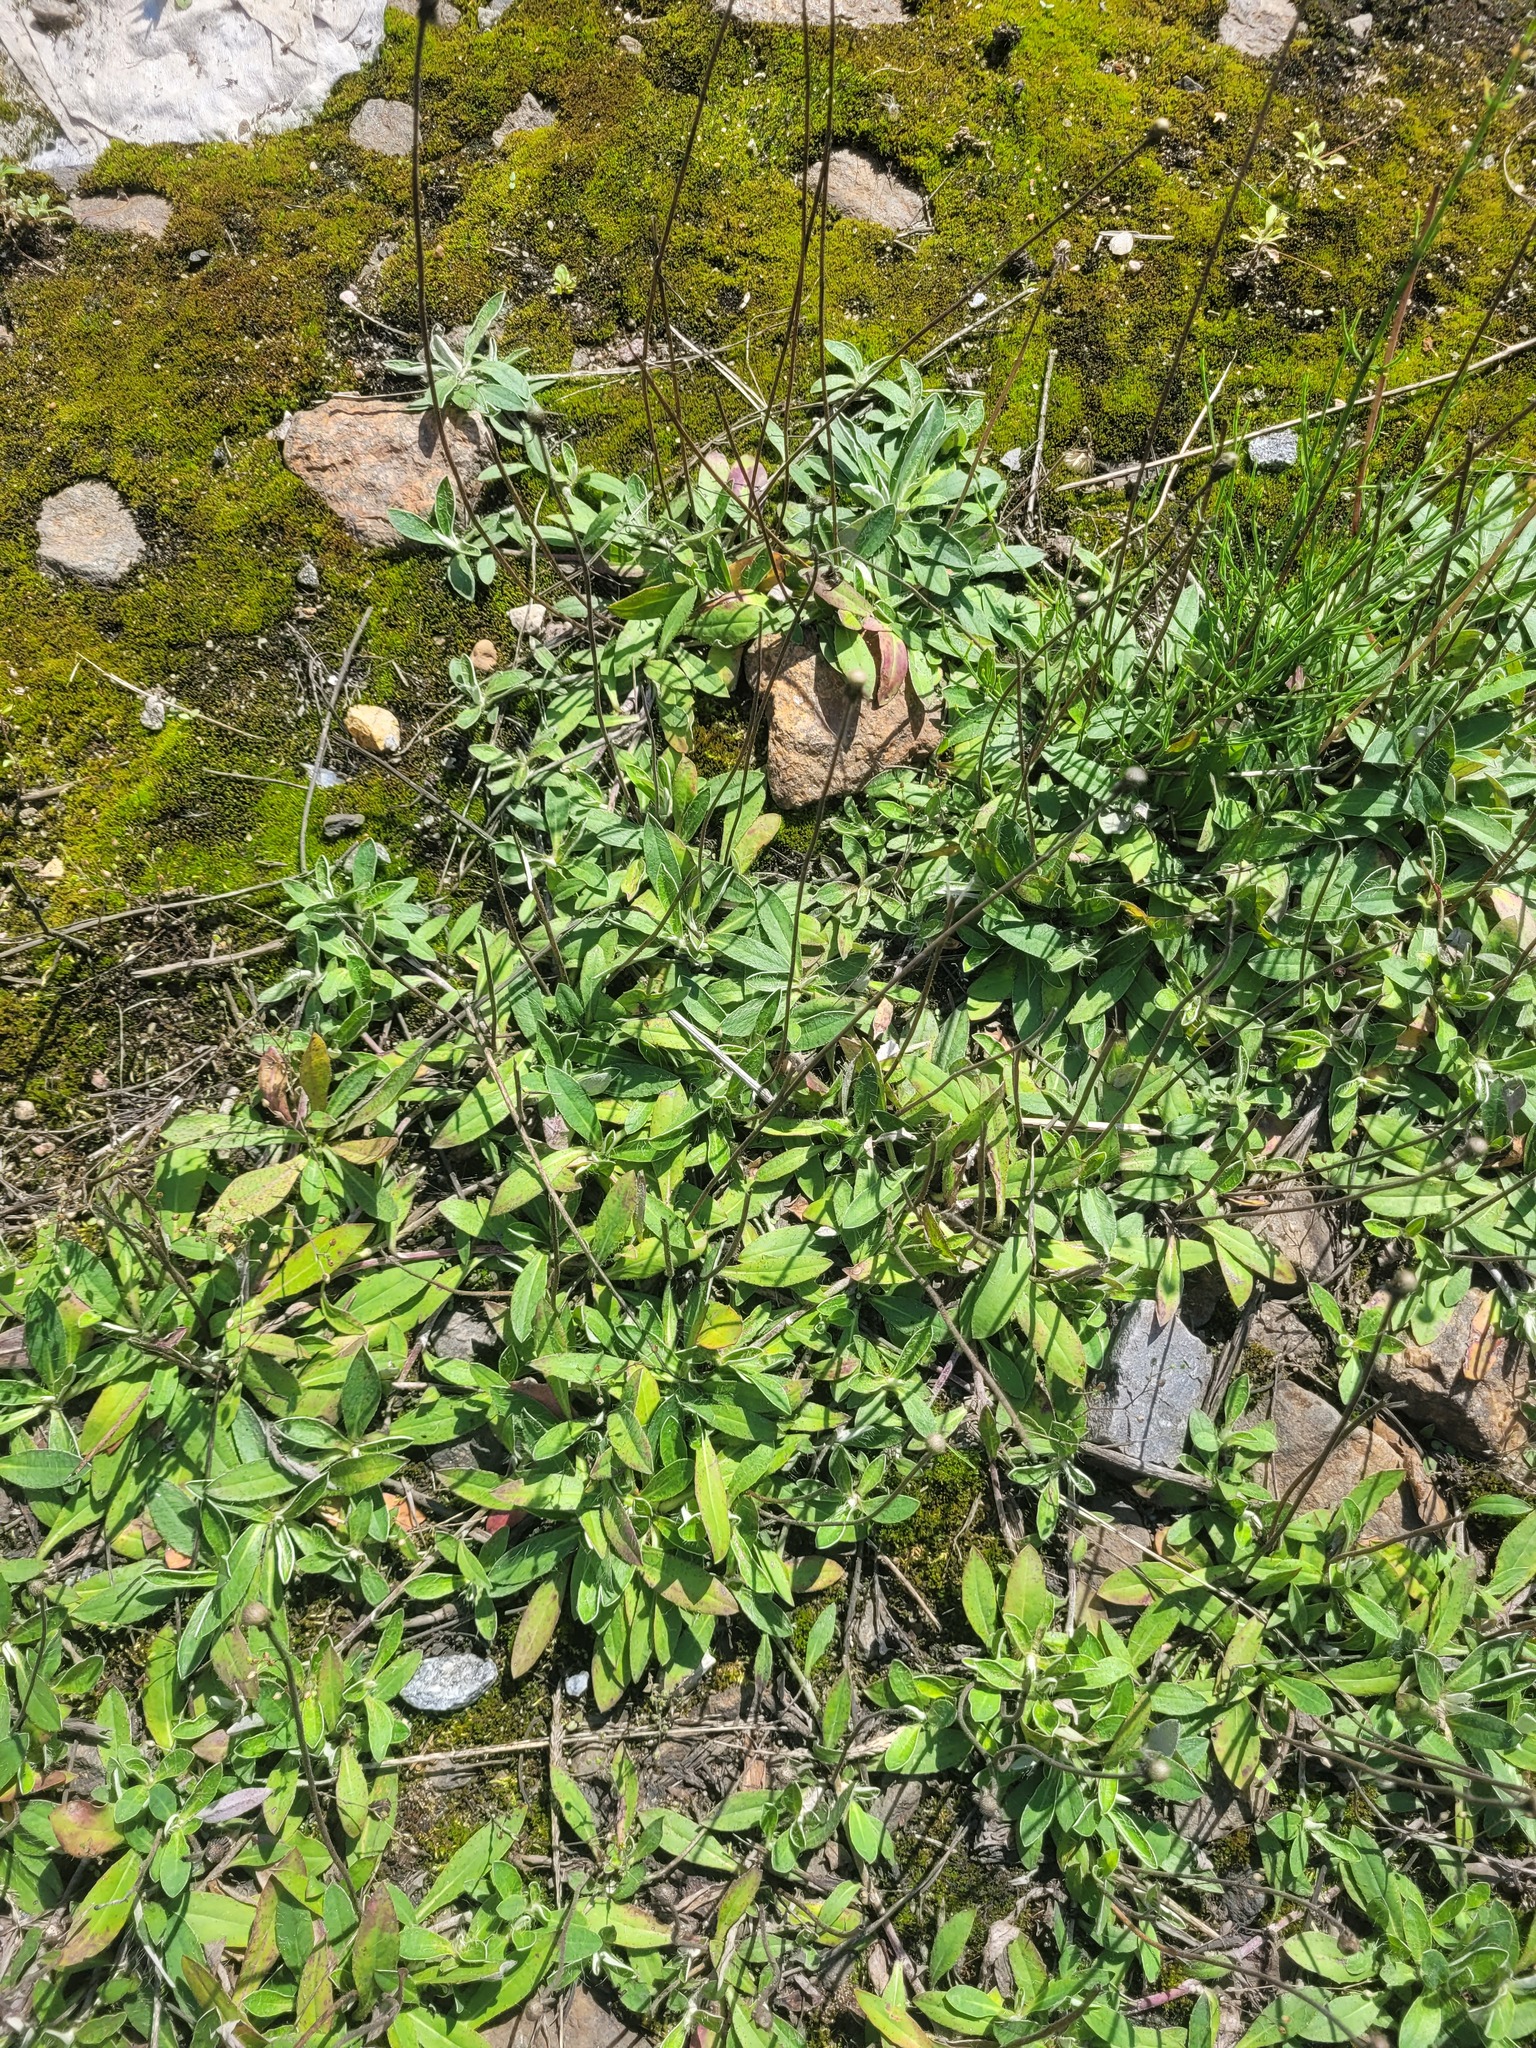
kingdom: Plantae
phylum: Tracheophyta
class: Magnoliopsida
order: Asterales
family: Asteraceae
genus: Pilosella
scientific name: Pilosella officinarum
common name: Mouse-ear hawkweed
